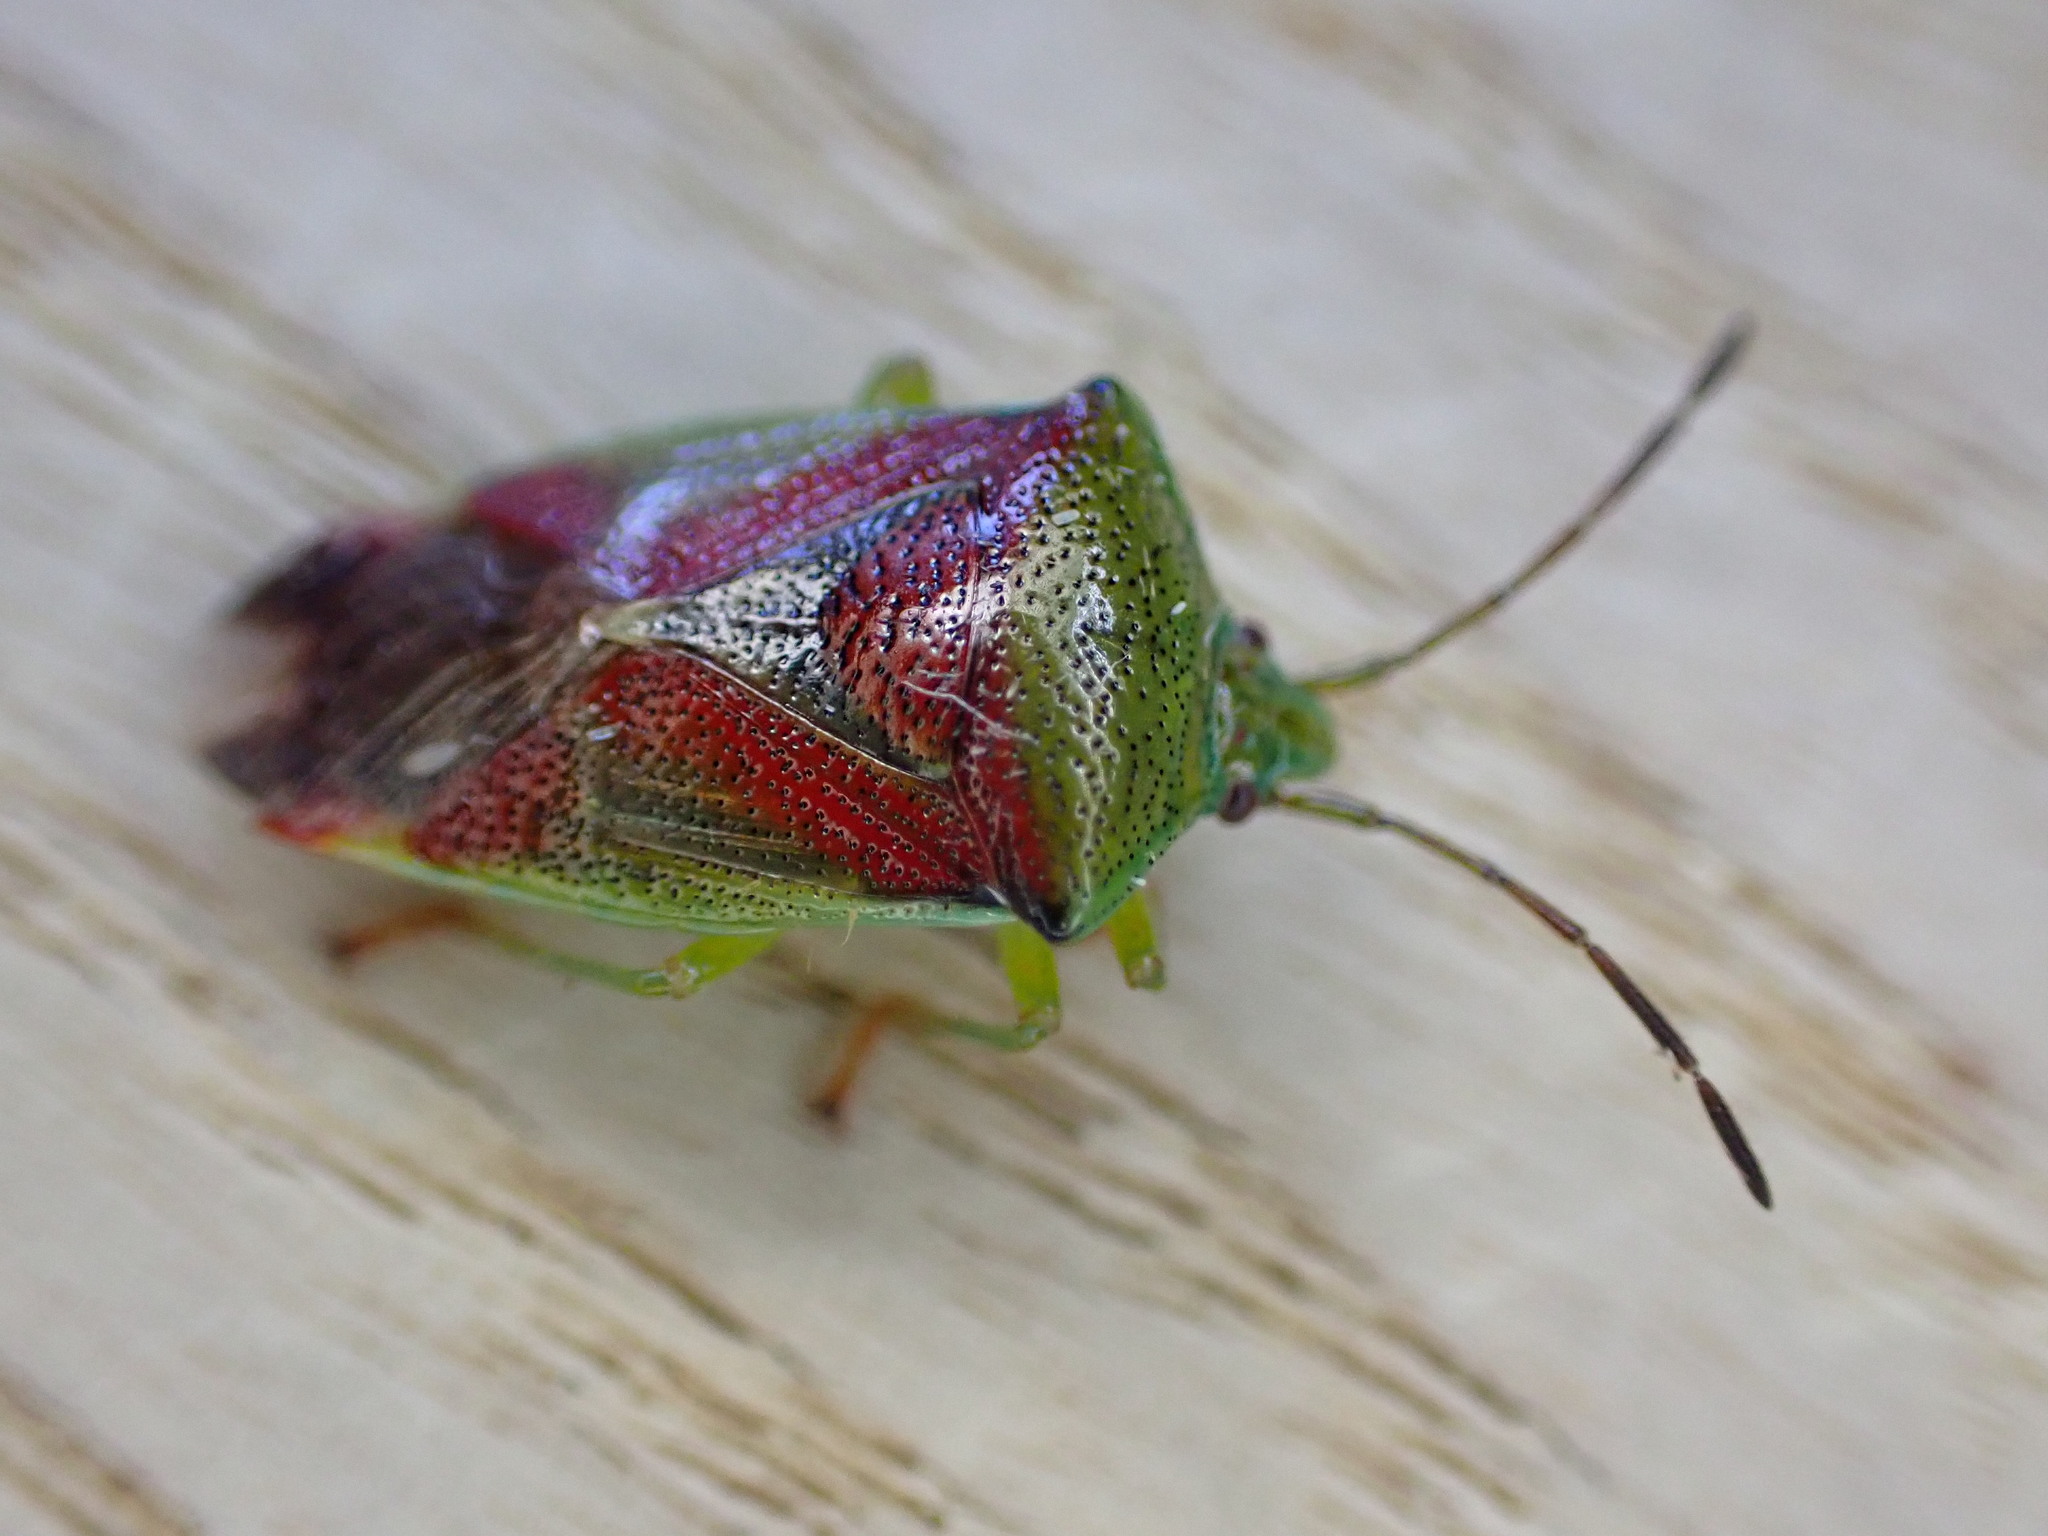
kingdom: Animalia
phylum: Arthropoda
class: Insecta
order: Hemiptera
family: Acanthosomatidae
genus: Elasmostethus
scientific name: Elasmostethus interstinctus
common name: Birch shieldbug
